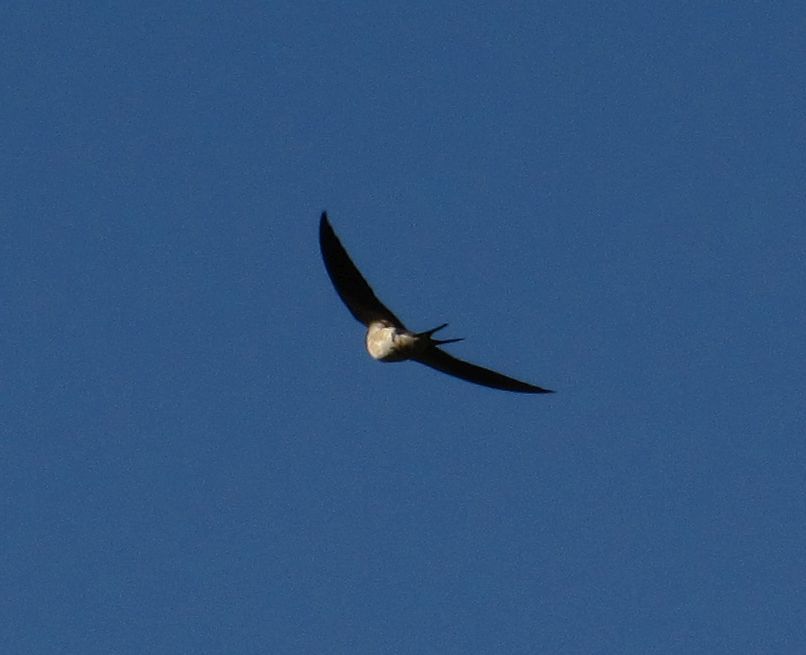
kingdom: Animalia
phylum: Chordata
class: Aves
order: Passeriformes
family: Hirundinidae
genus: Hirundo
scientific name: Hirundo rustica
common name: Barn swallow
